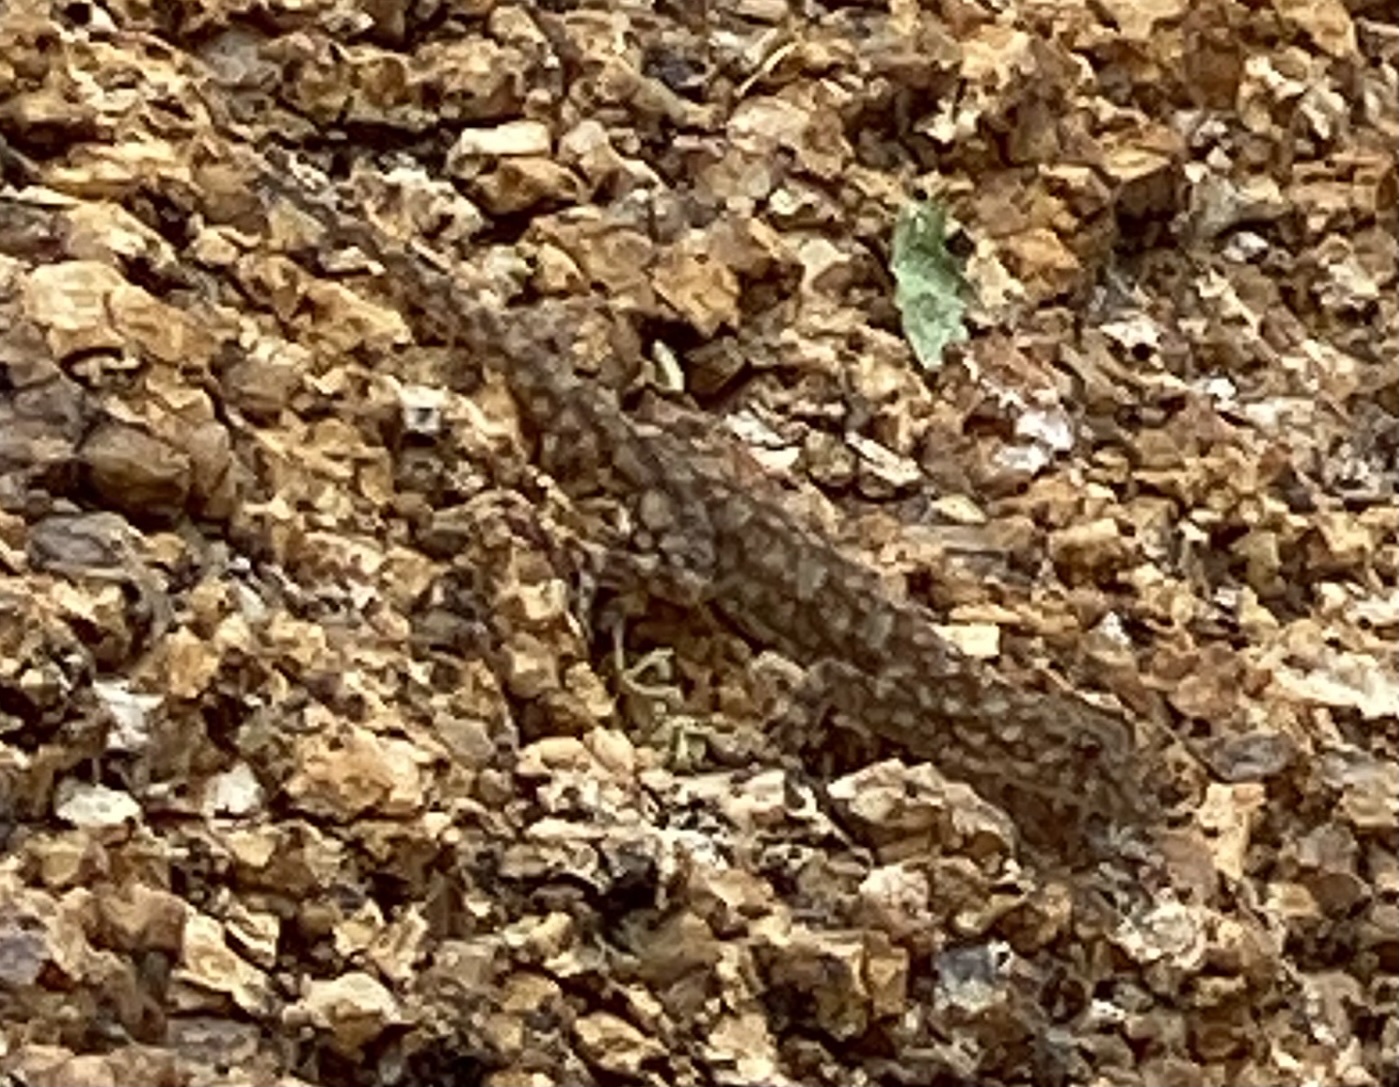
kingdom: Animalia
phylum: Chordata
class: Squamata
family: Gekkonidae
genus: Rhoptropus
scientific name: Rhoptropus barnardi
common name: Barnard’s namib day gecko
